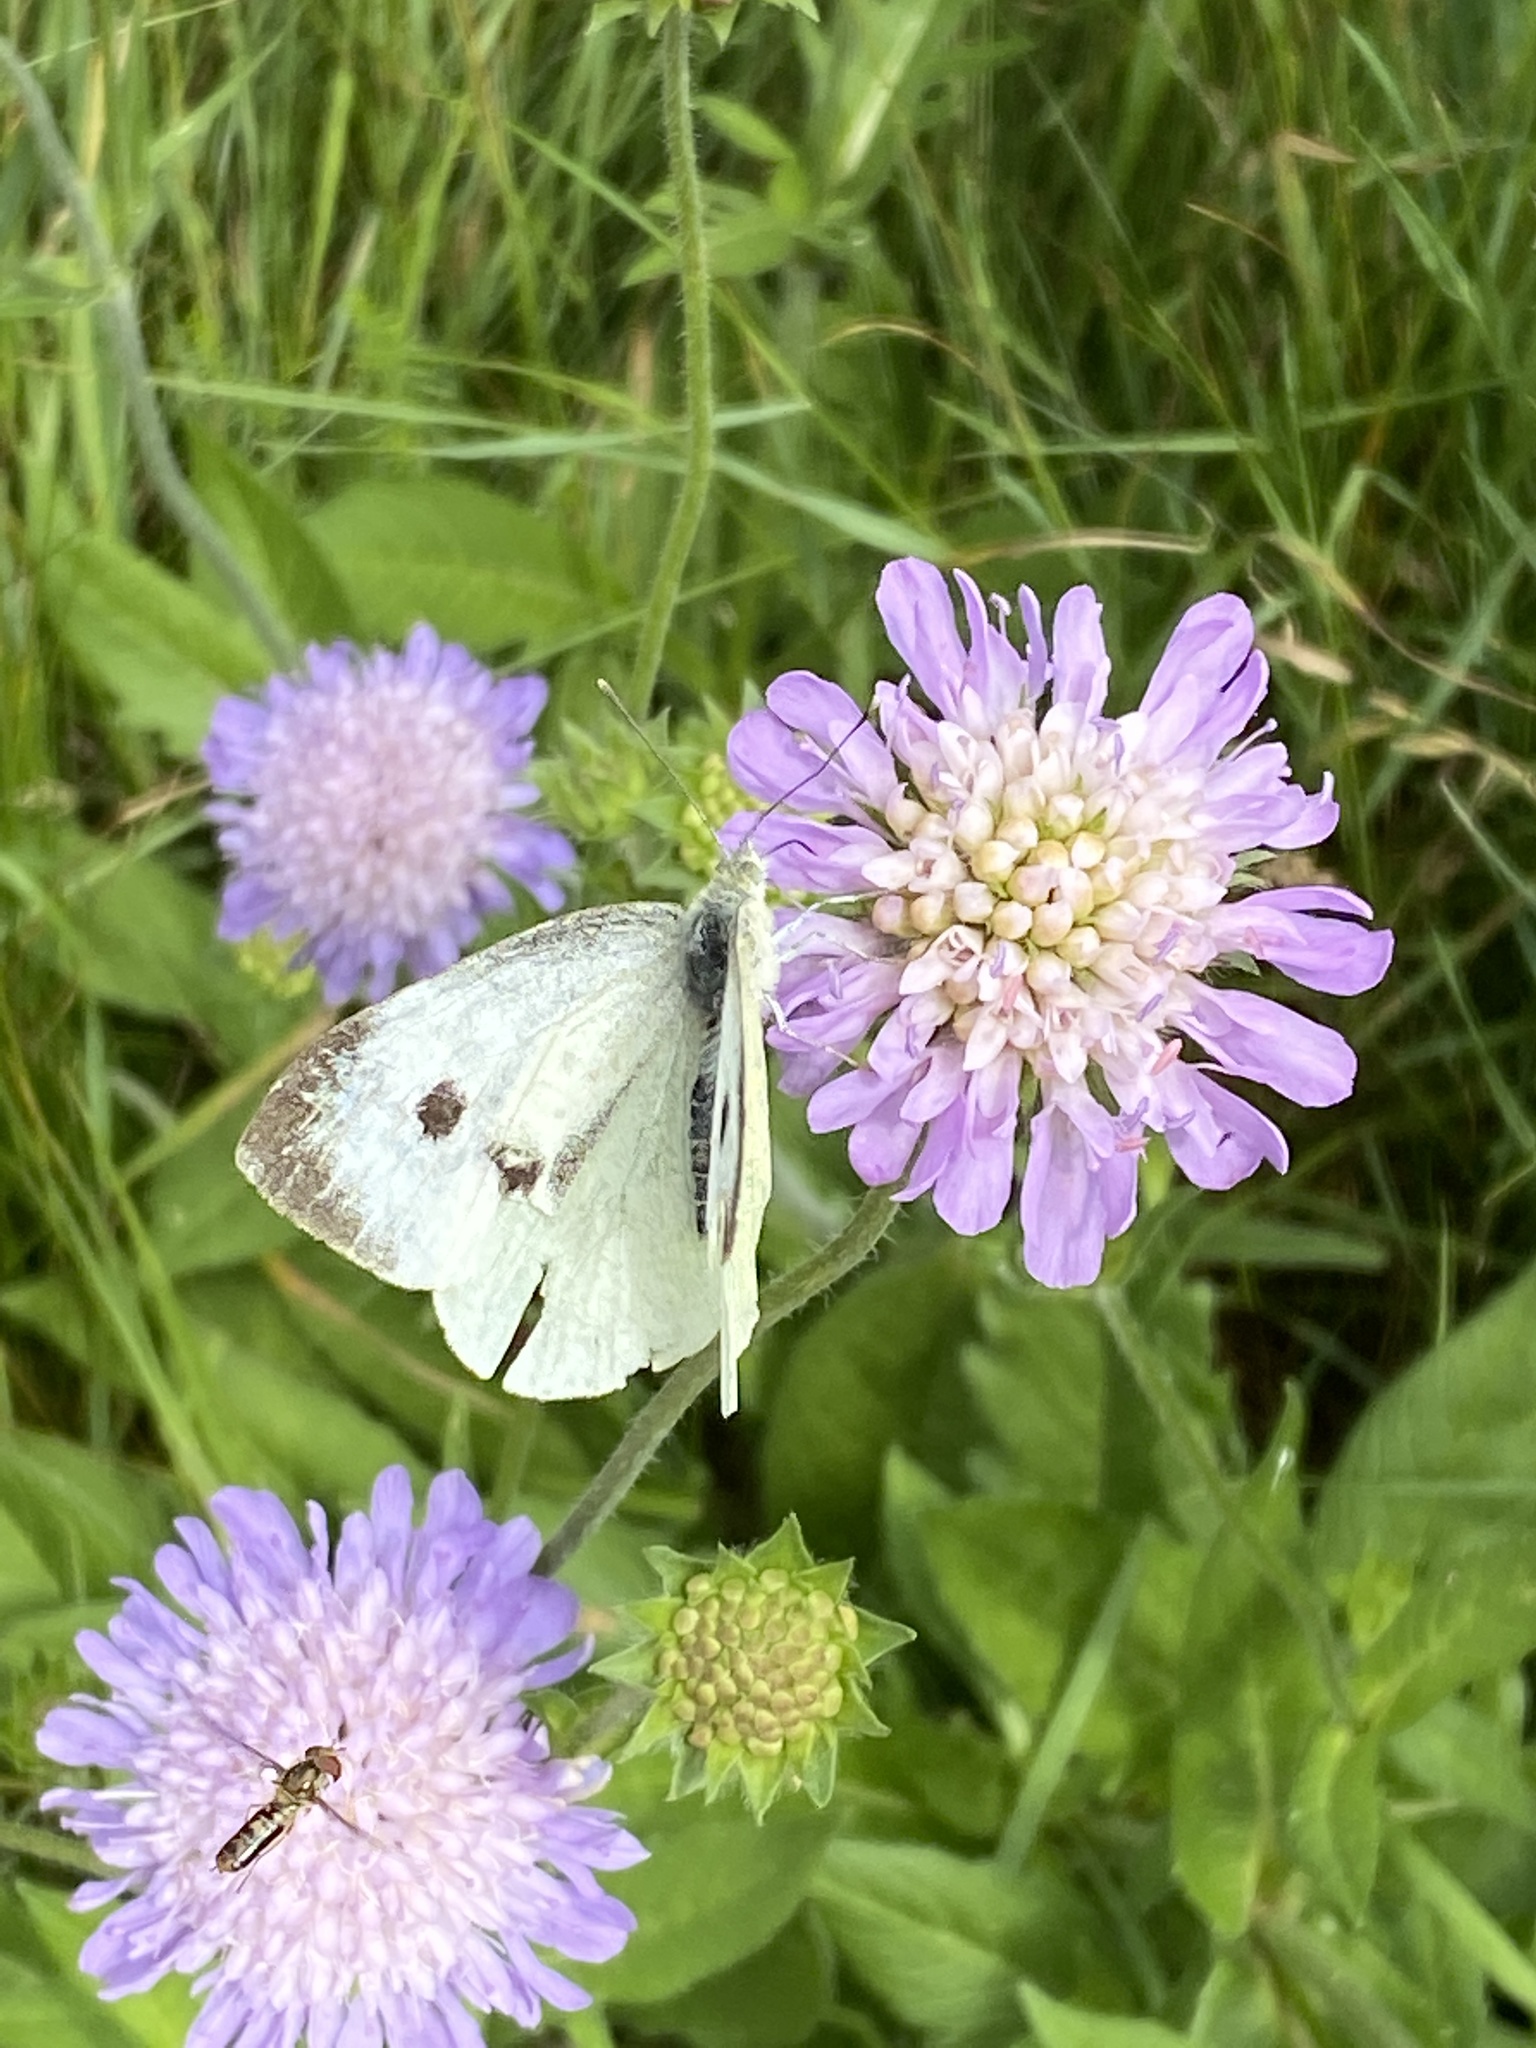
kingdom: Animalia
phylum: Arthropoda
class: Insecta
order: Lepidoptera
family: Pieridae
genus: Pieris
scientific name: Pieris brassicae
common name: Large white
